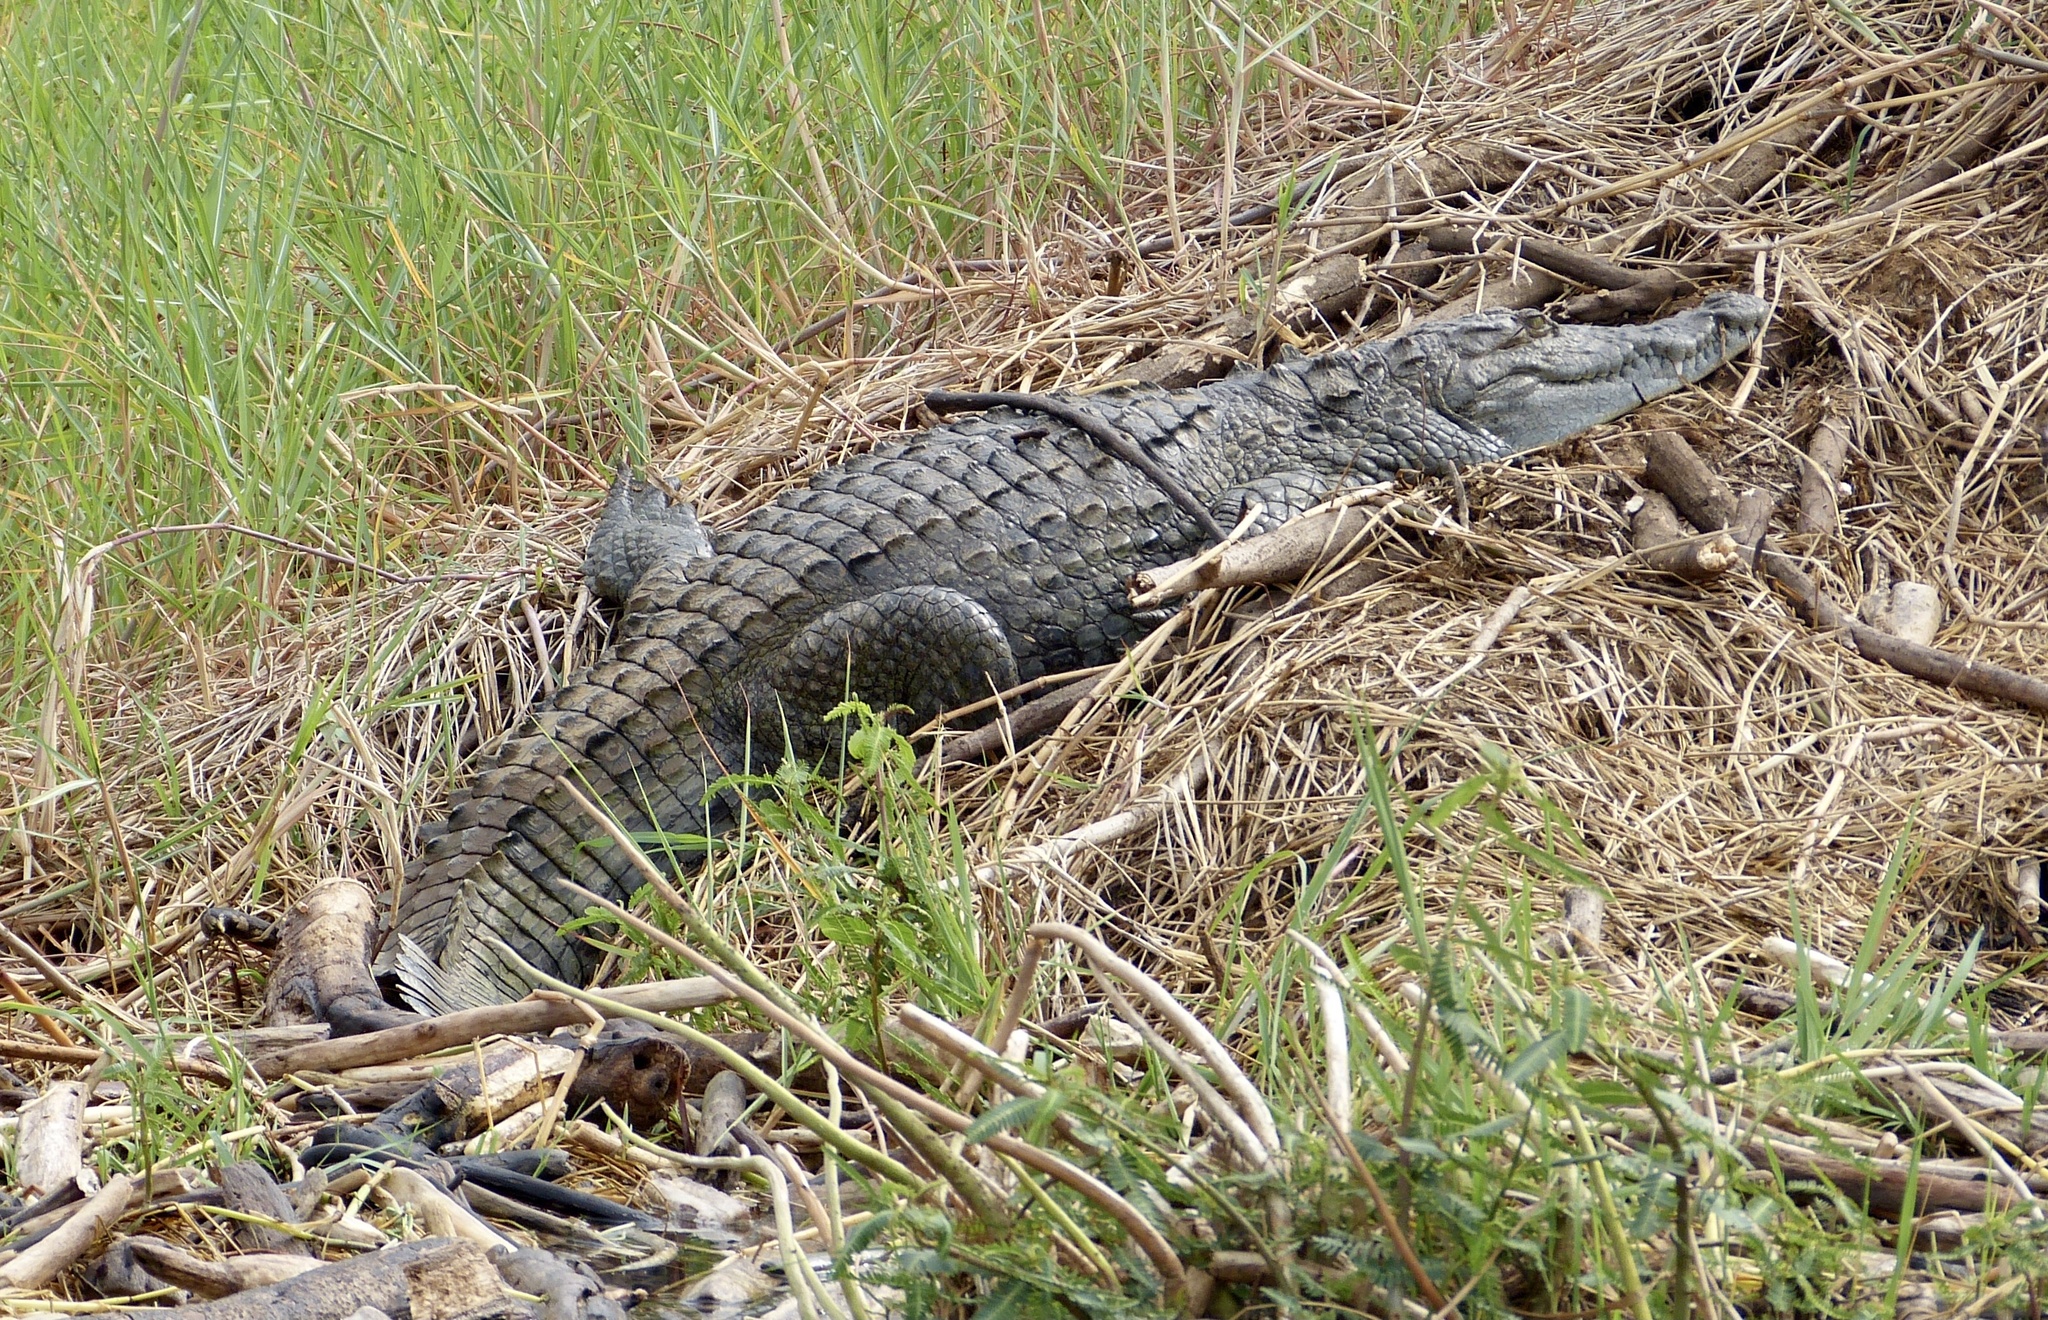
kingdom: Animalia
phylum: Chordata
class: Crocodylia
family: Crocodylidae
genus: Crocodylus
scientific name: Crocodylus niloticus
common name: Nile crocodile
